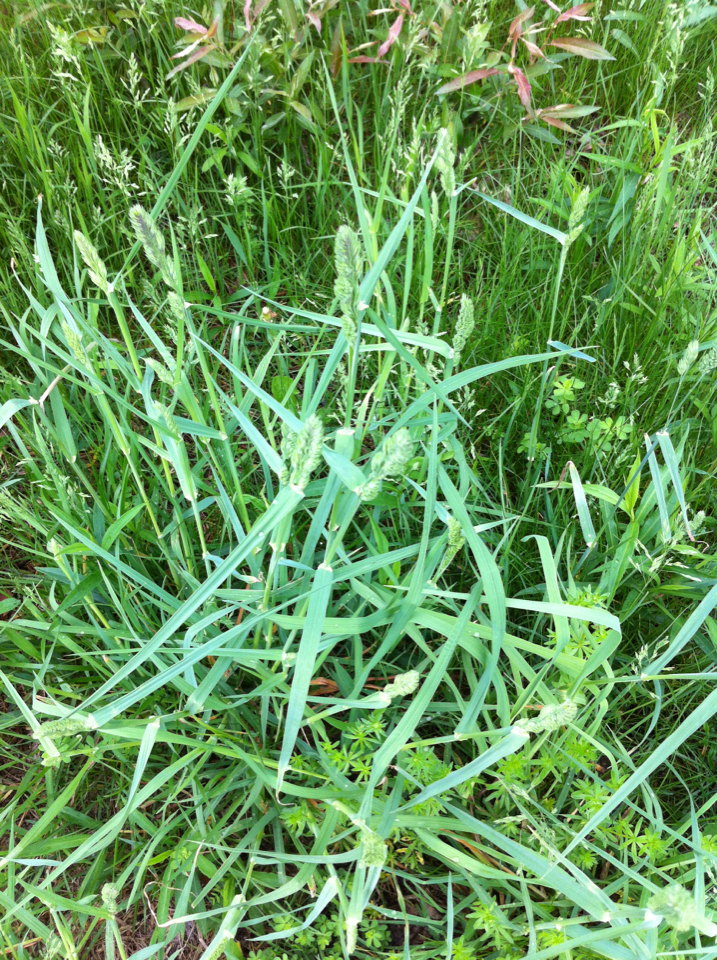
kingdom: Plantae
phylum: Tracheophyta
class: Liliopsida
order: Poales
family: Poaceae
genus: Dactylis
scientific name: Dactylis glomerata
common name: Orchardgrass
